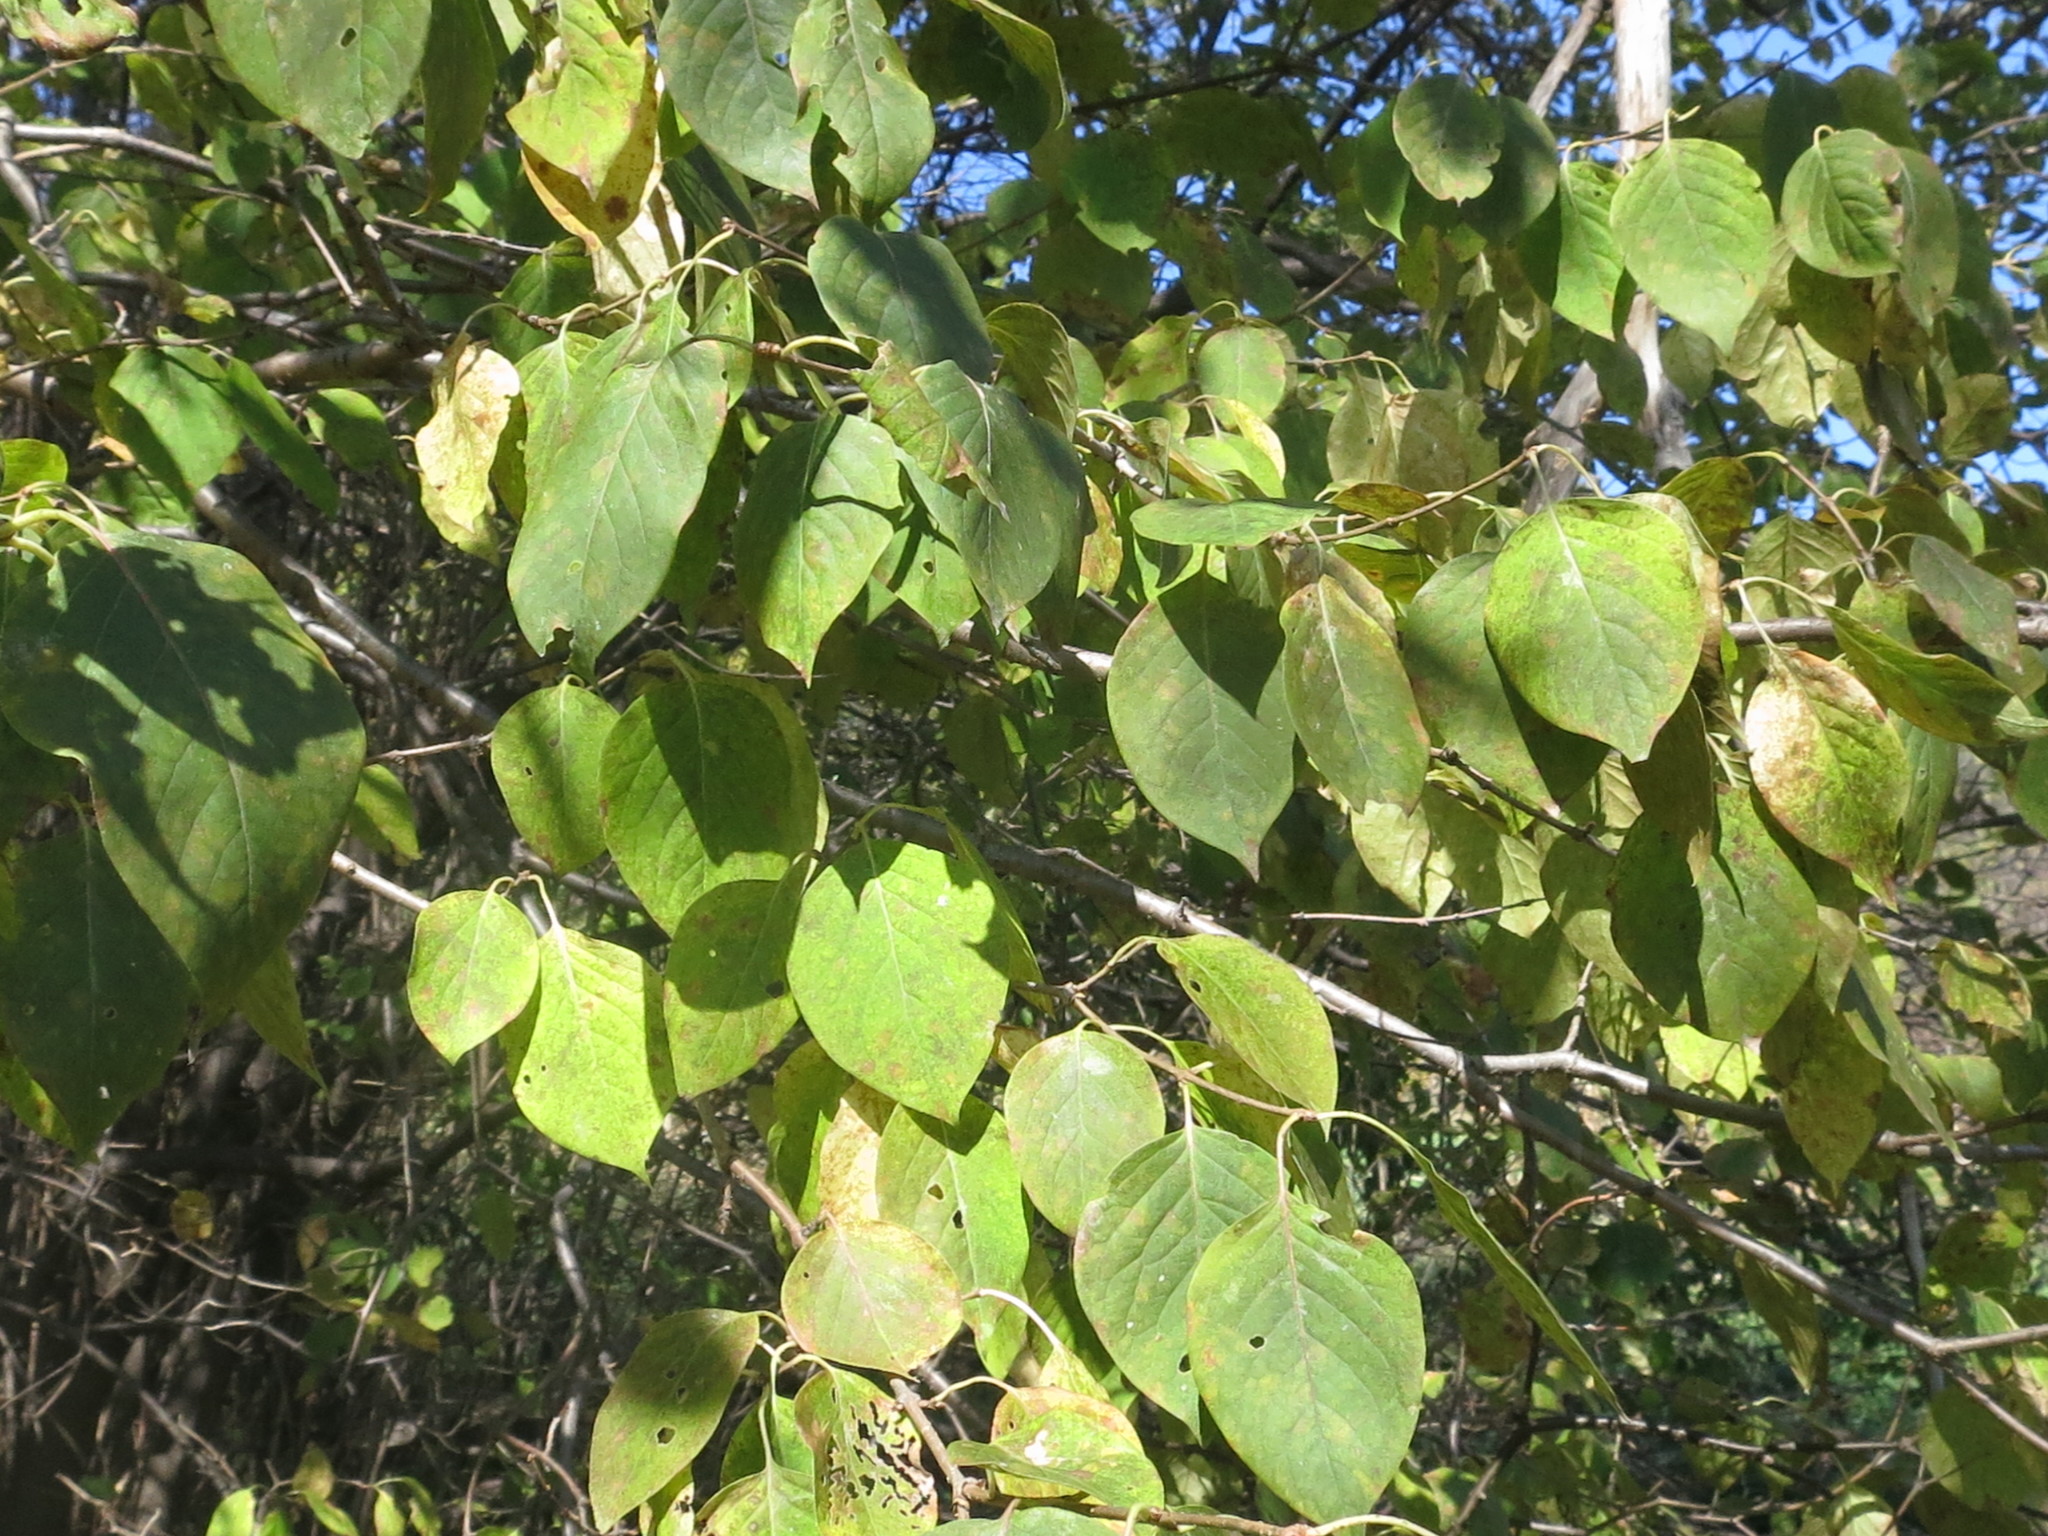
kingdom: Plantae
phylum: Tracheophyta
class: Magnoliopsida
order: Lamiales
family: Oleaceae
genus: Syringa
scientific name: Syringa reticulata
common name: Japanese tree lilac
